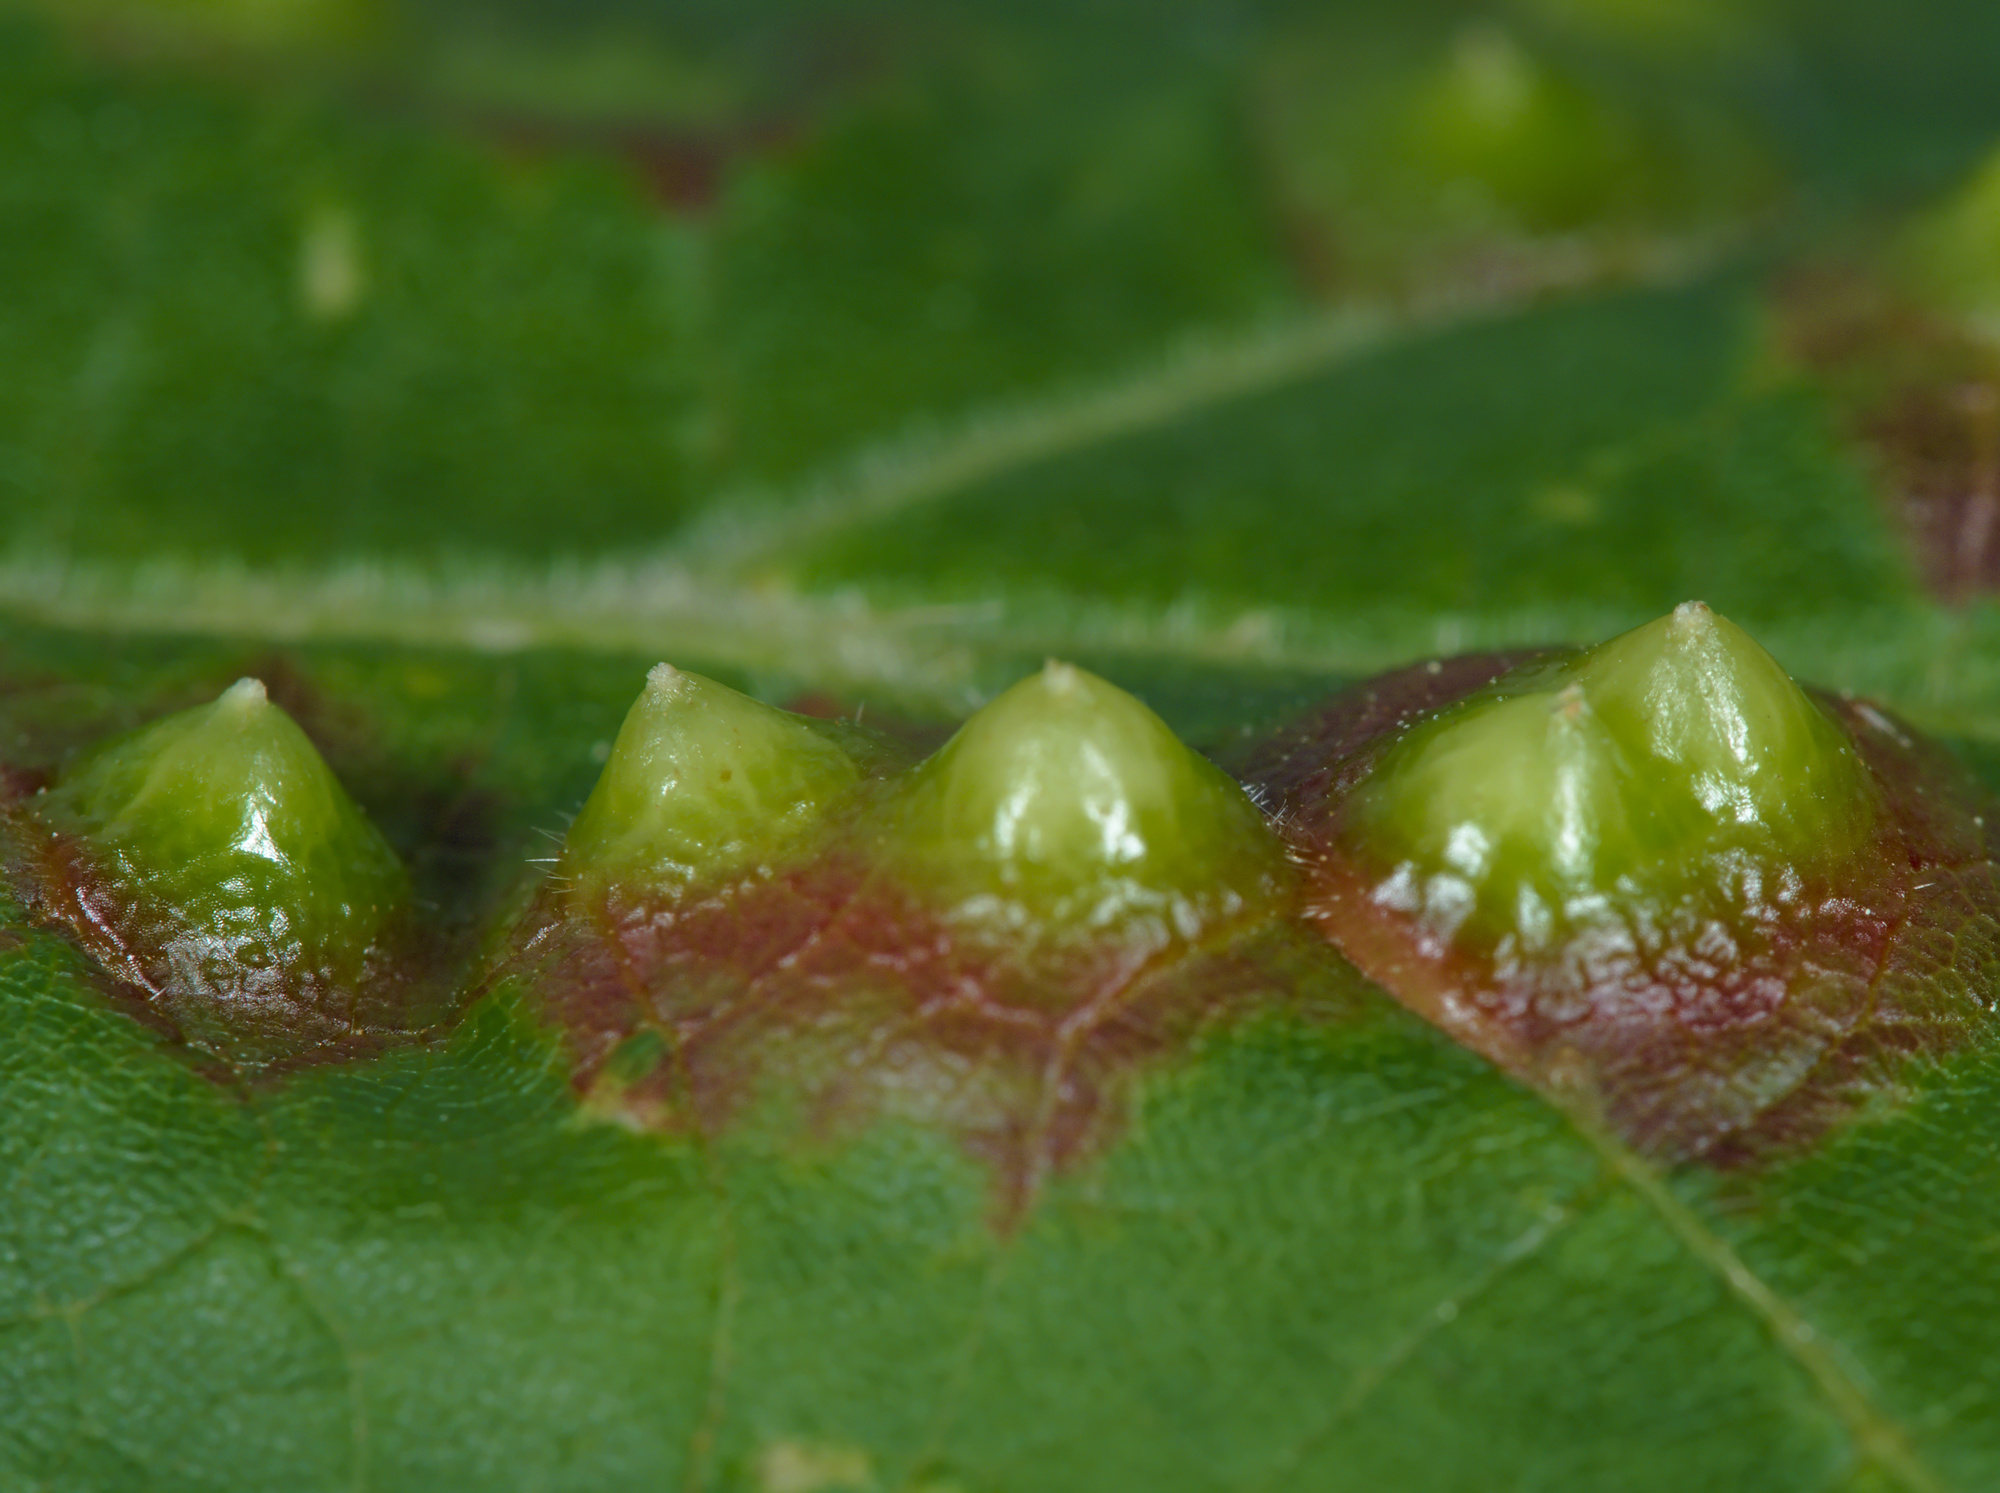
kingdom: Animalia
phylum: Arthropoda
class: Insecta
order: Diptera
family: Cecidomyiidae
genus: Didymomyia
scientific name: Didymomyia tiliacea
